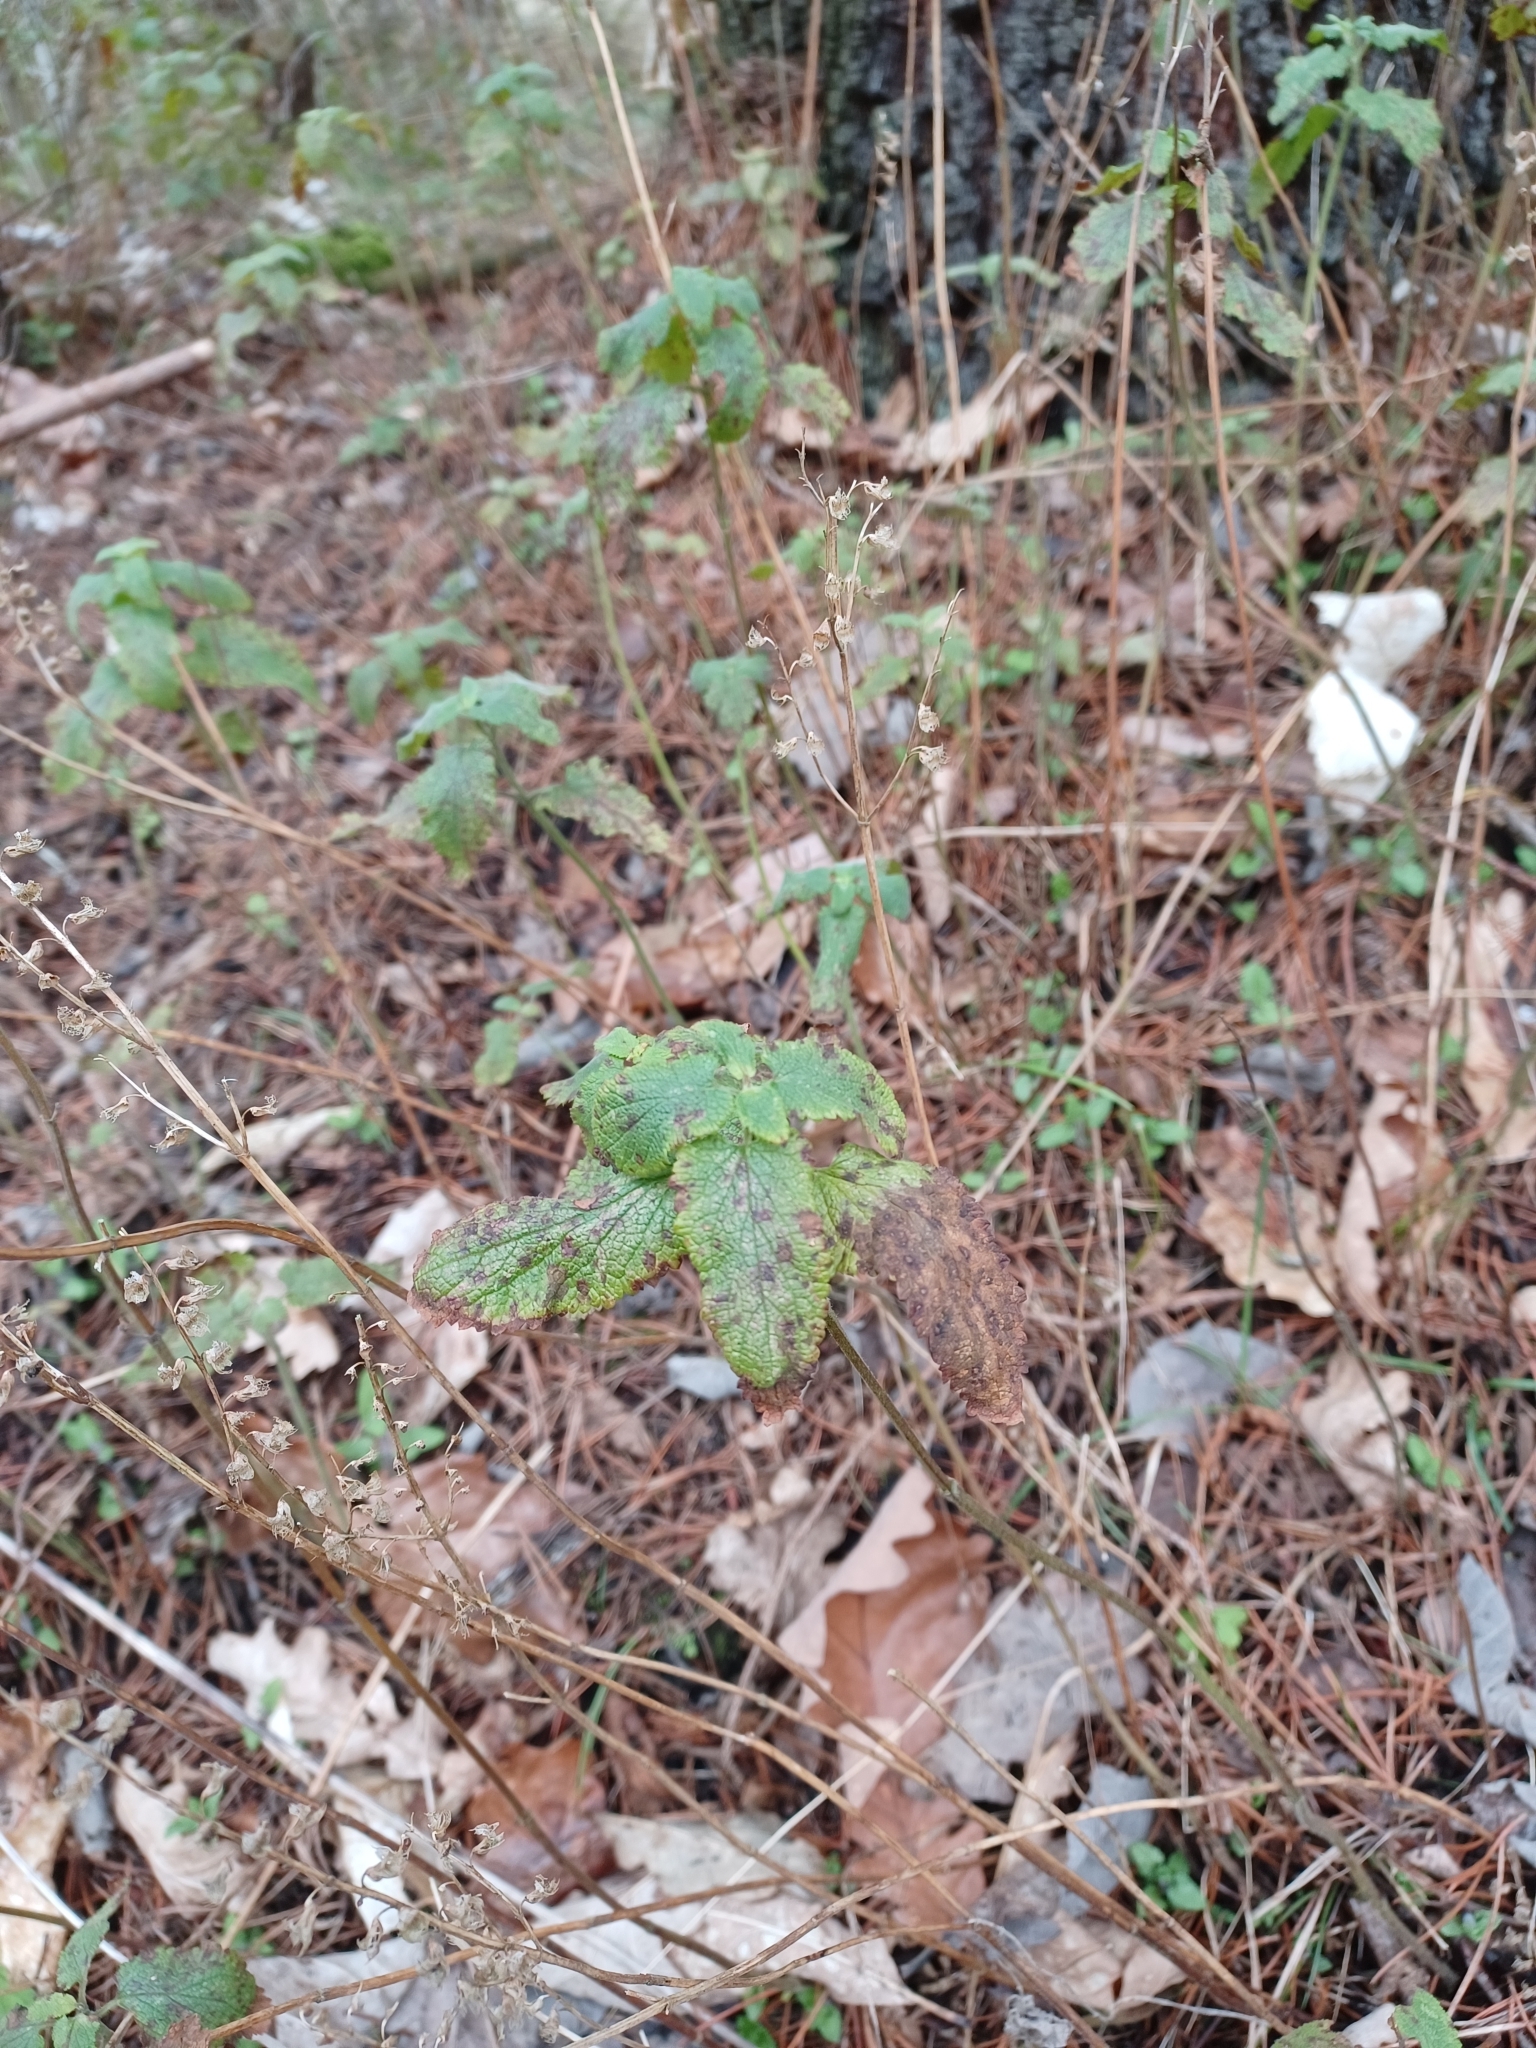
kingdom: Plantae
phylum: Tracheophyta
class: Magnoliopsida
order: Lamiales
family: Lamiaceae
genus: Teucrium
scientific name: Teucrium scorodonia
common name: Woodland germander
